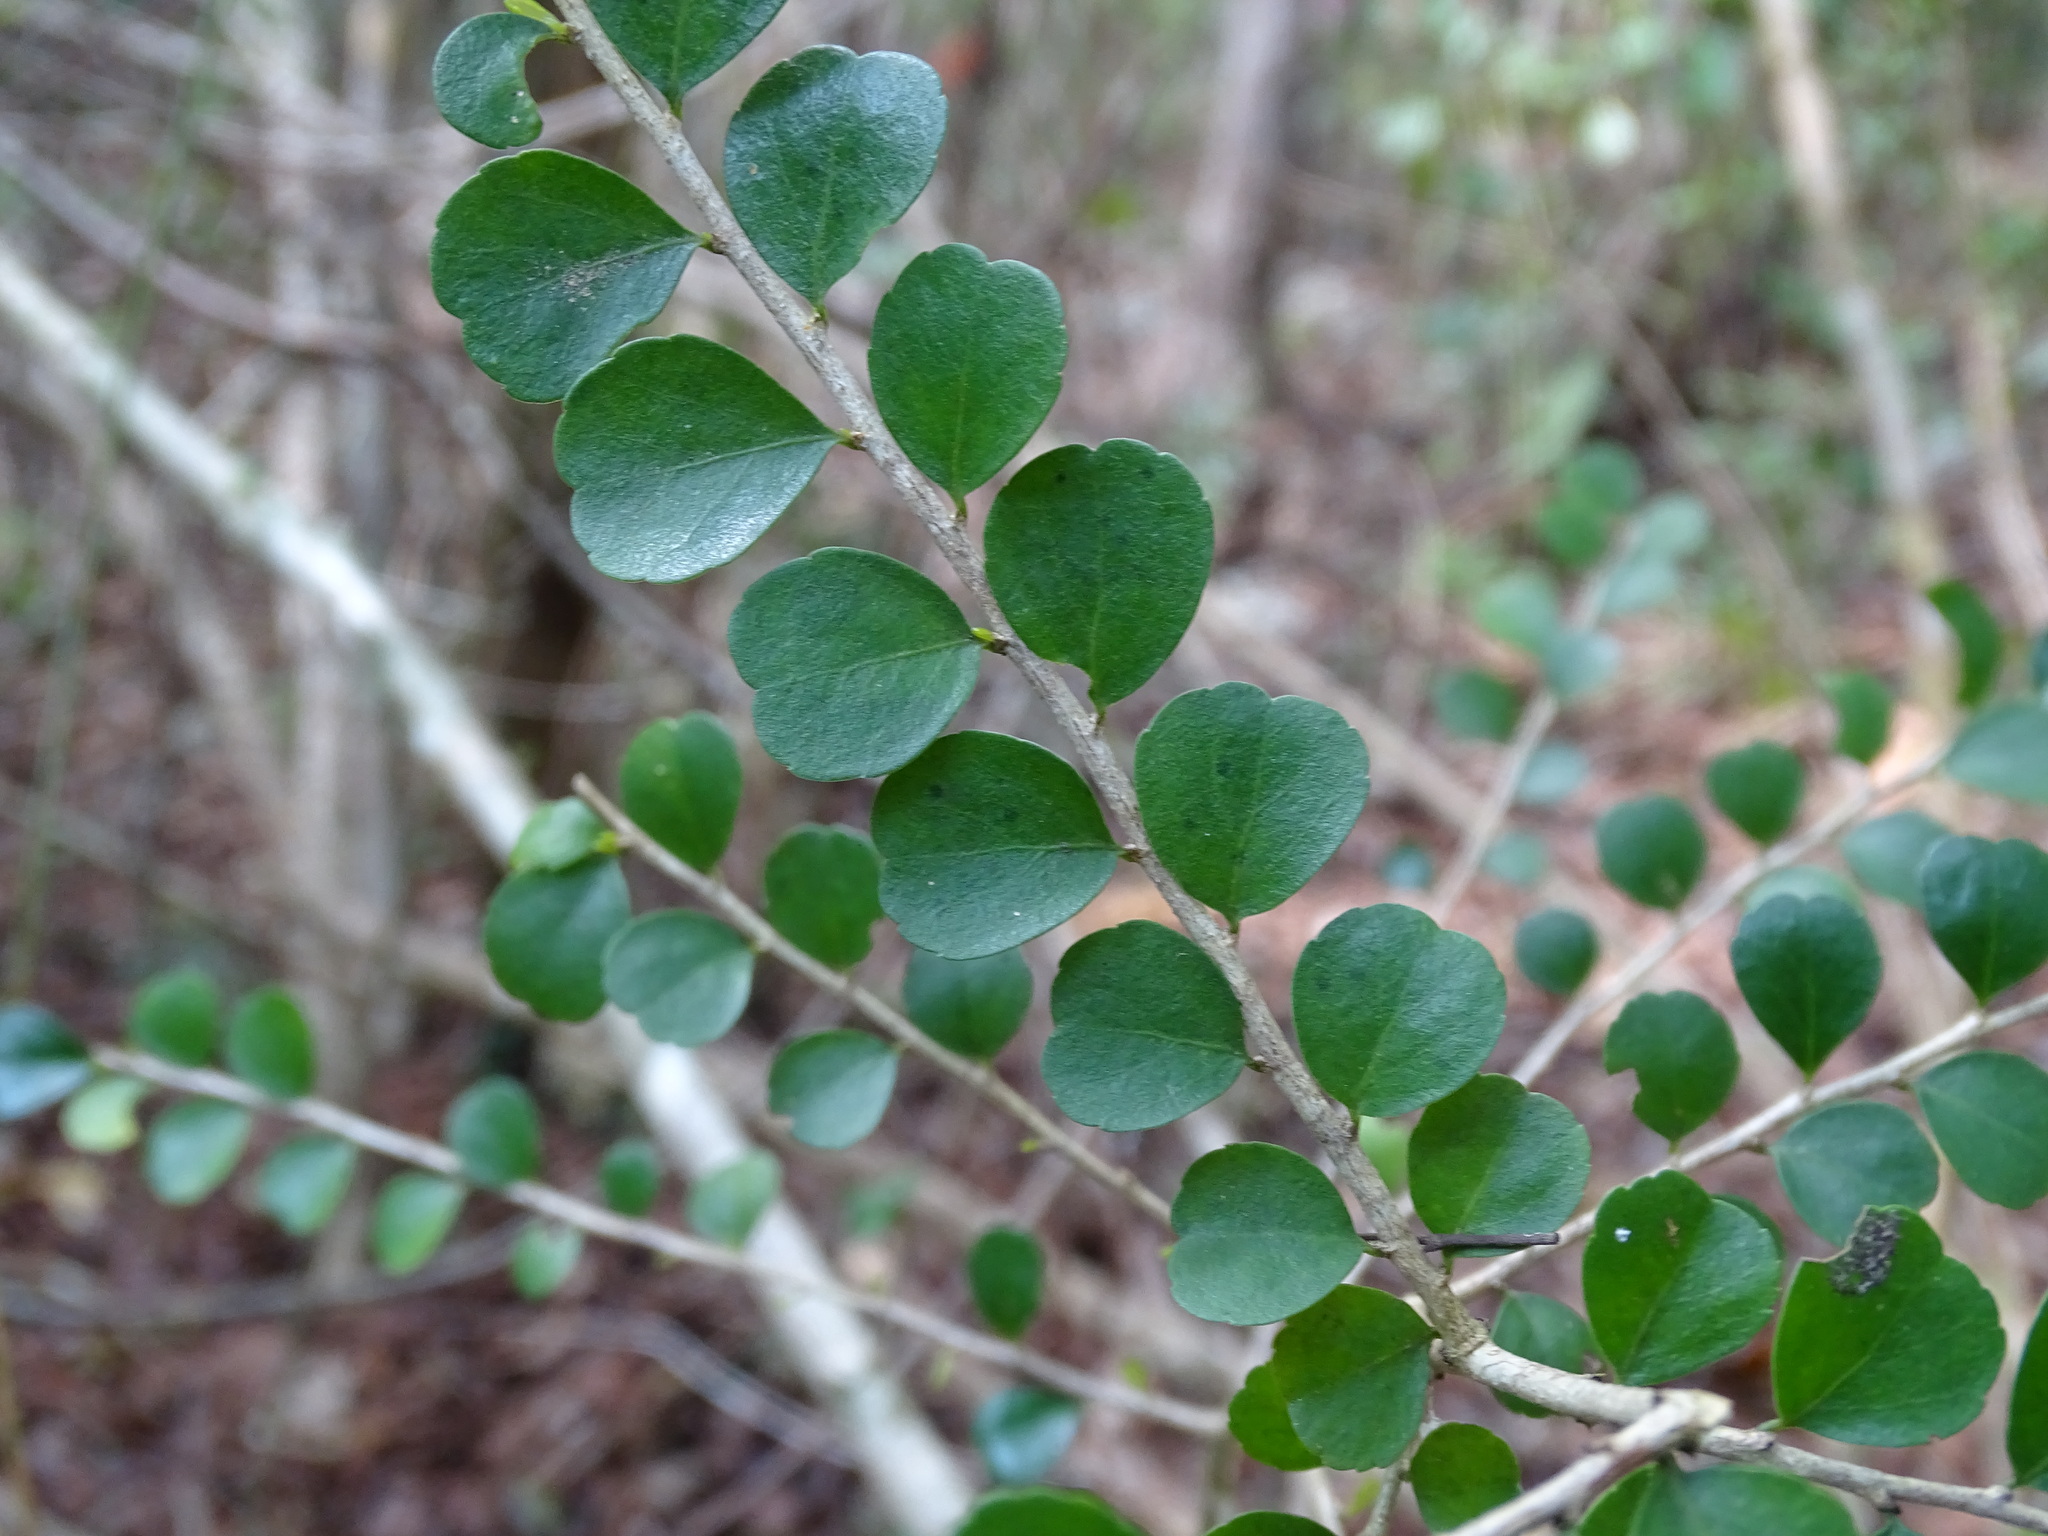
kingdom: Plantae
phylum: Tracheophyta
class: Magnoliopsida
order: Malpighiales
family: Salicaceae
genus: Casearia
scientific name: Casearia emarginata
